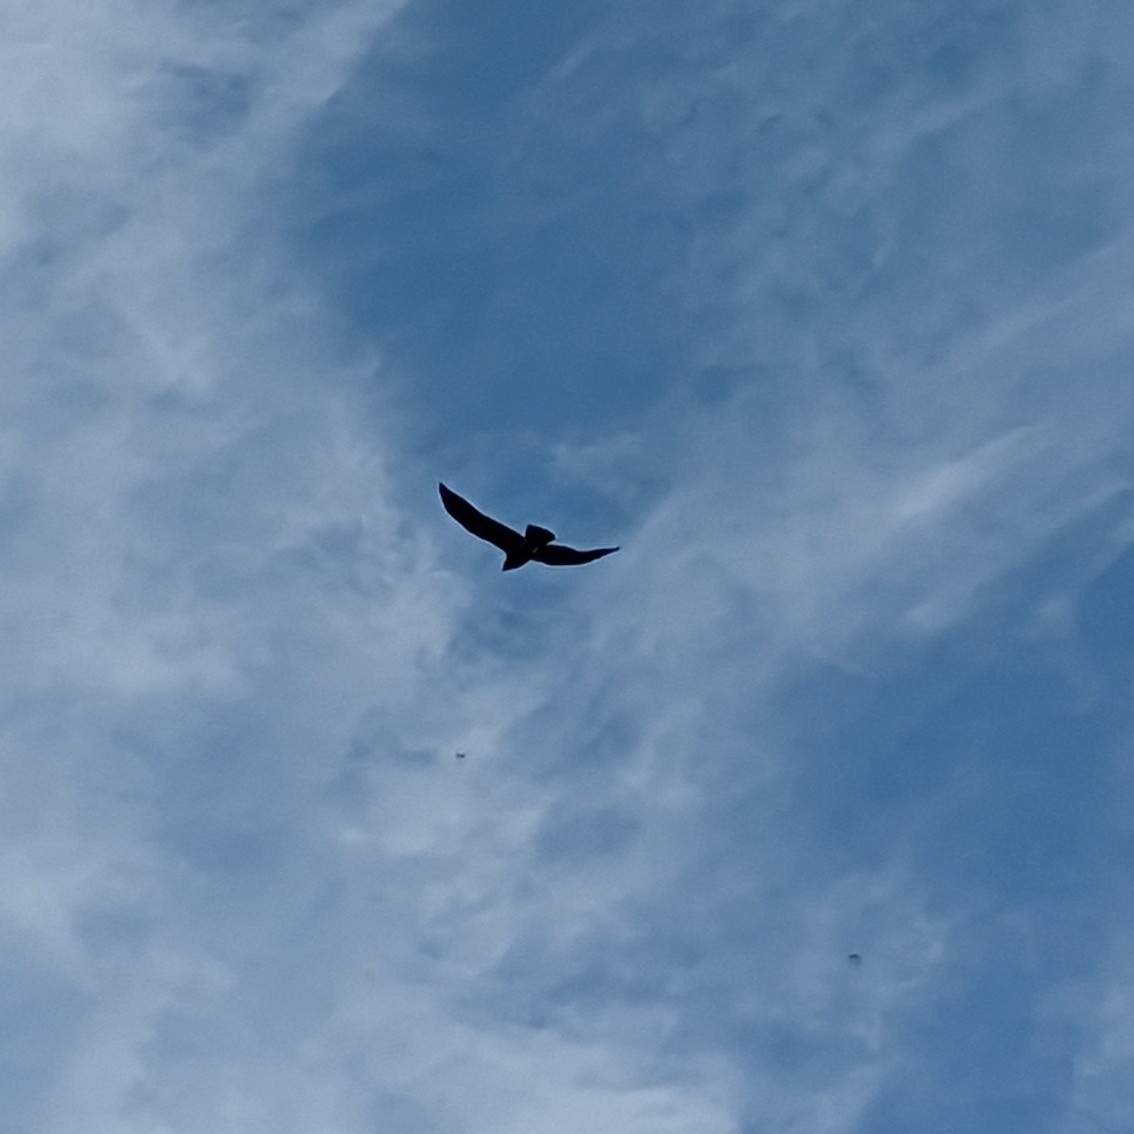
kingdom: Animalia
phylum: Chordata
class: Aves
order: Accipitriformes
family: Accipitridae
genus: Buteo
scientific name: Buteo
